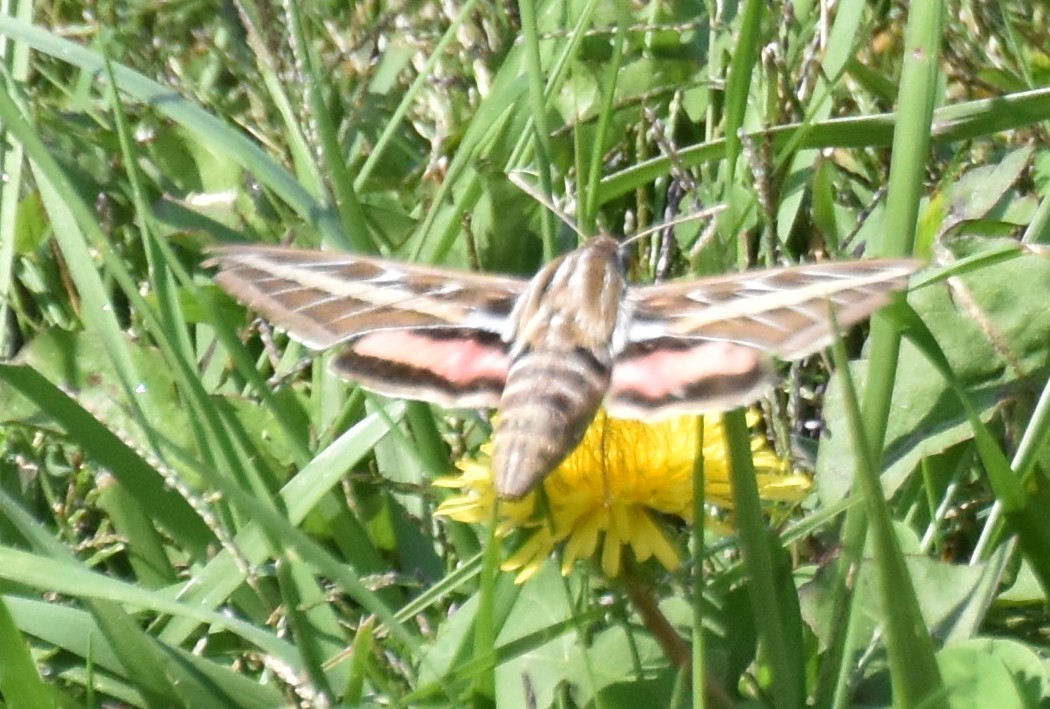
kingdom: Animalia
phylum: Arthropoda
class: Insecta
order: Lepidoptera
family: Sphingidae
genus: Hyles
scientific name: Hyles lineata
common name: White-lined sphinx
